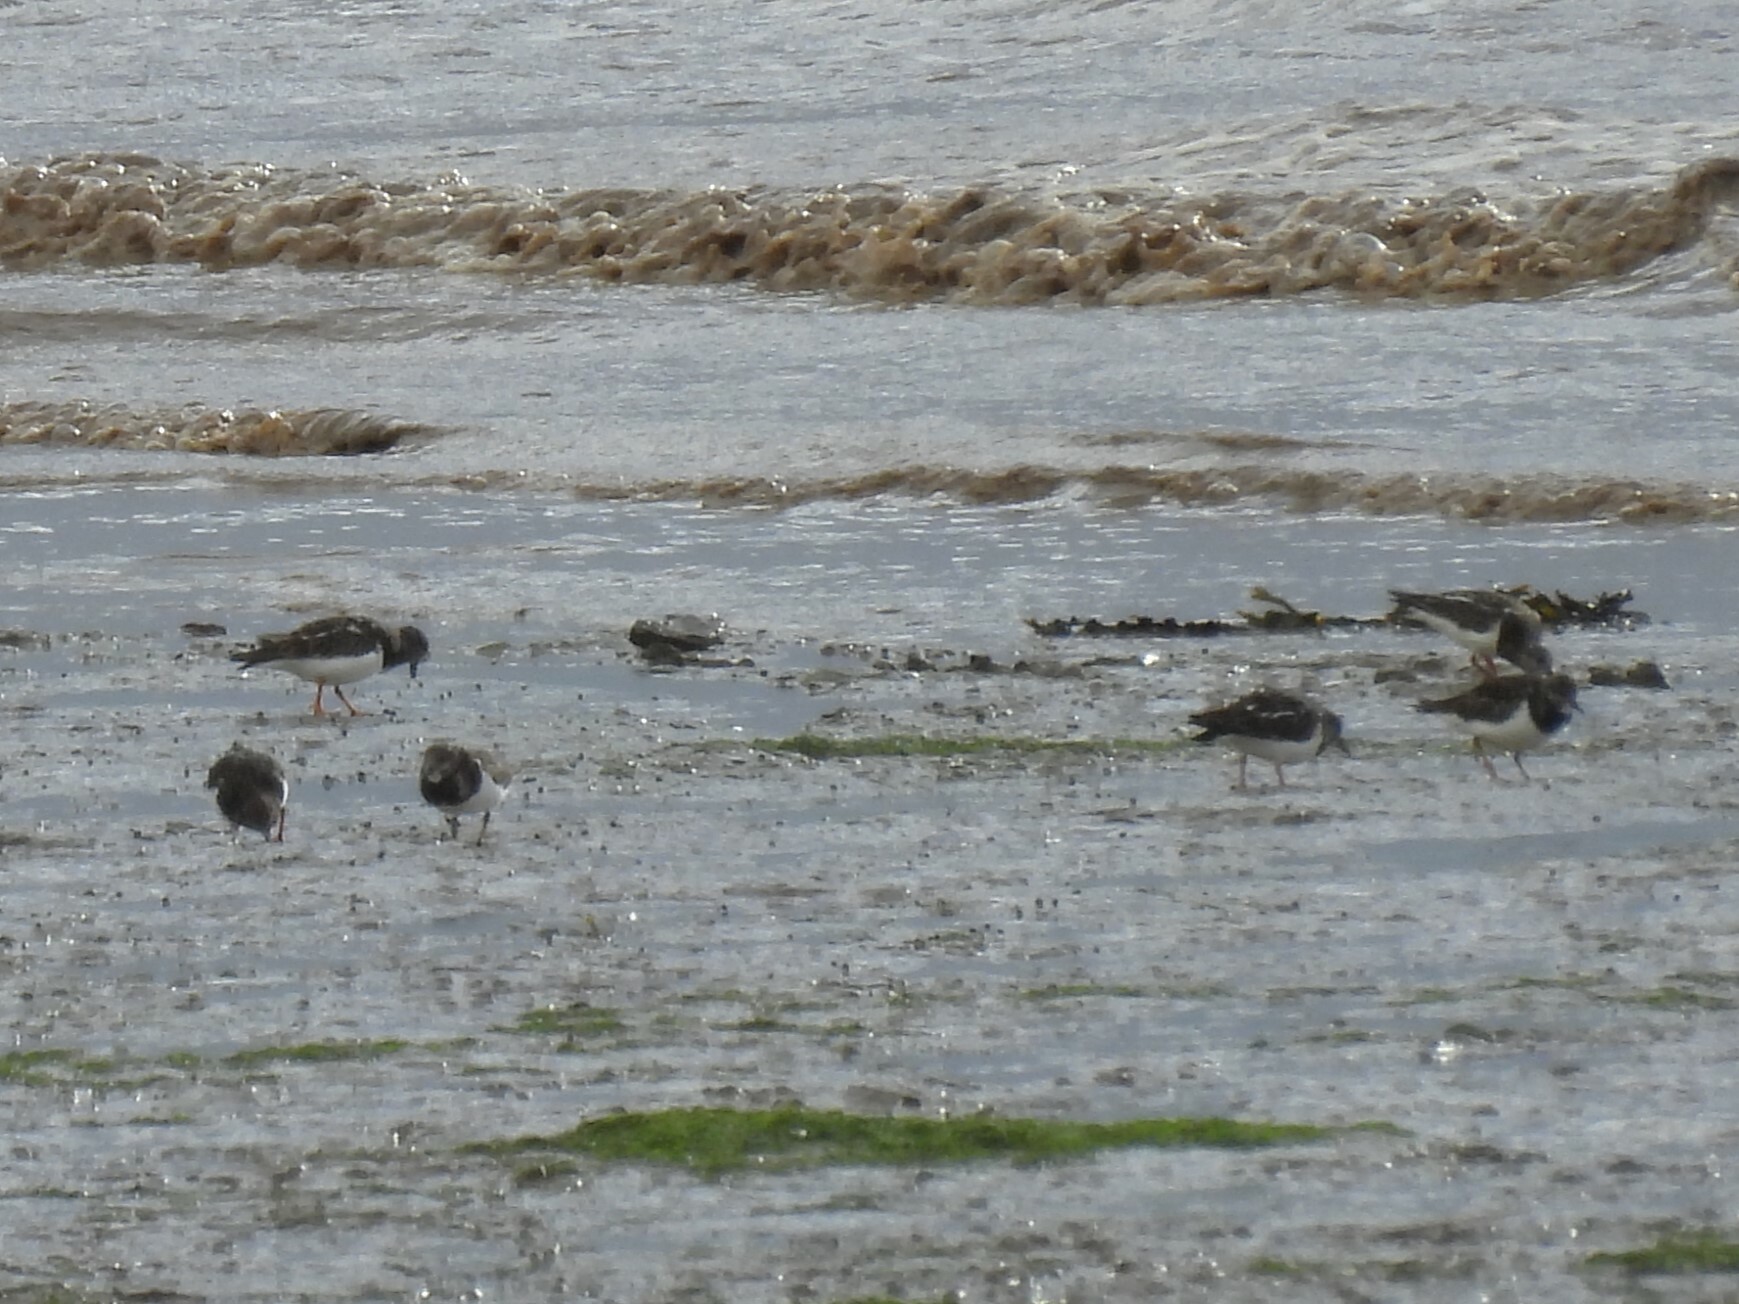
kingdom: Animalia
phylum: Chordata
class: Aves
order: Charadriiformes
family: Scolopacidae
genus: Arenaria
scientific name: Arenaria interpres
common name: Ruddy turnstone
